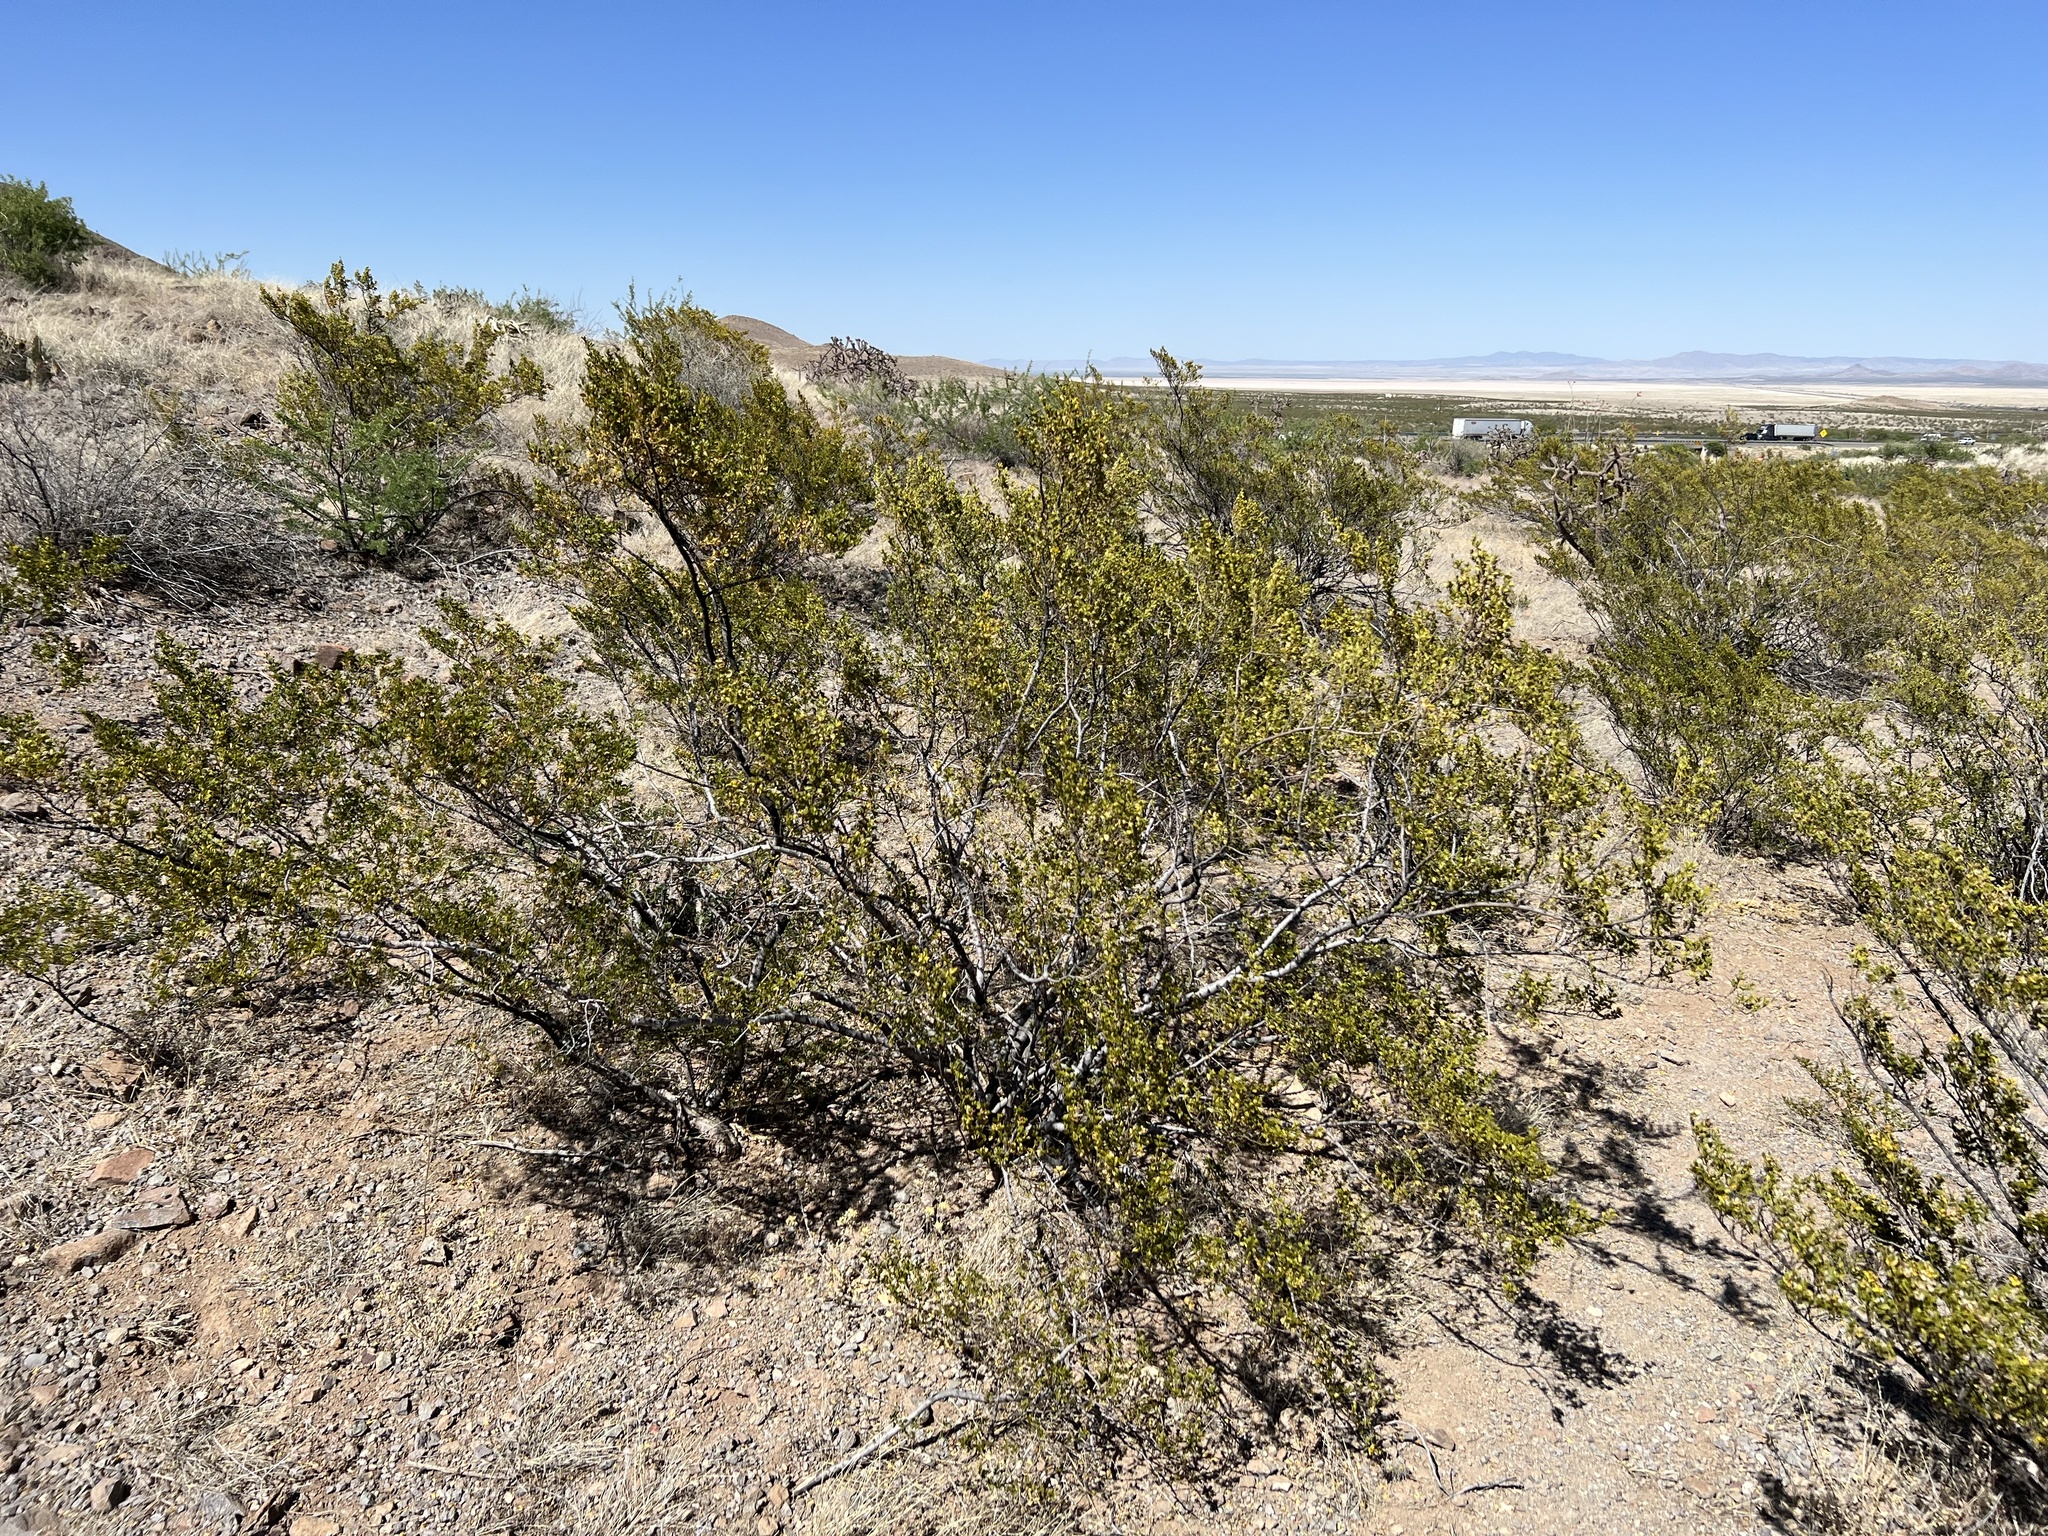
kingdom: Plantae
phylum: Tracheophyta
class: Magnoliopsida
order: Zygophyllales
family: Zygophyllaceae
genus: Larrea
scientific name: Larrea tridentata
